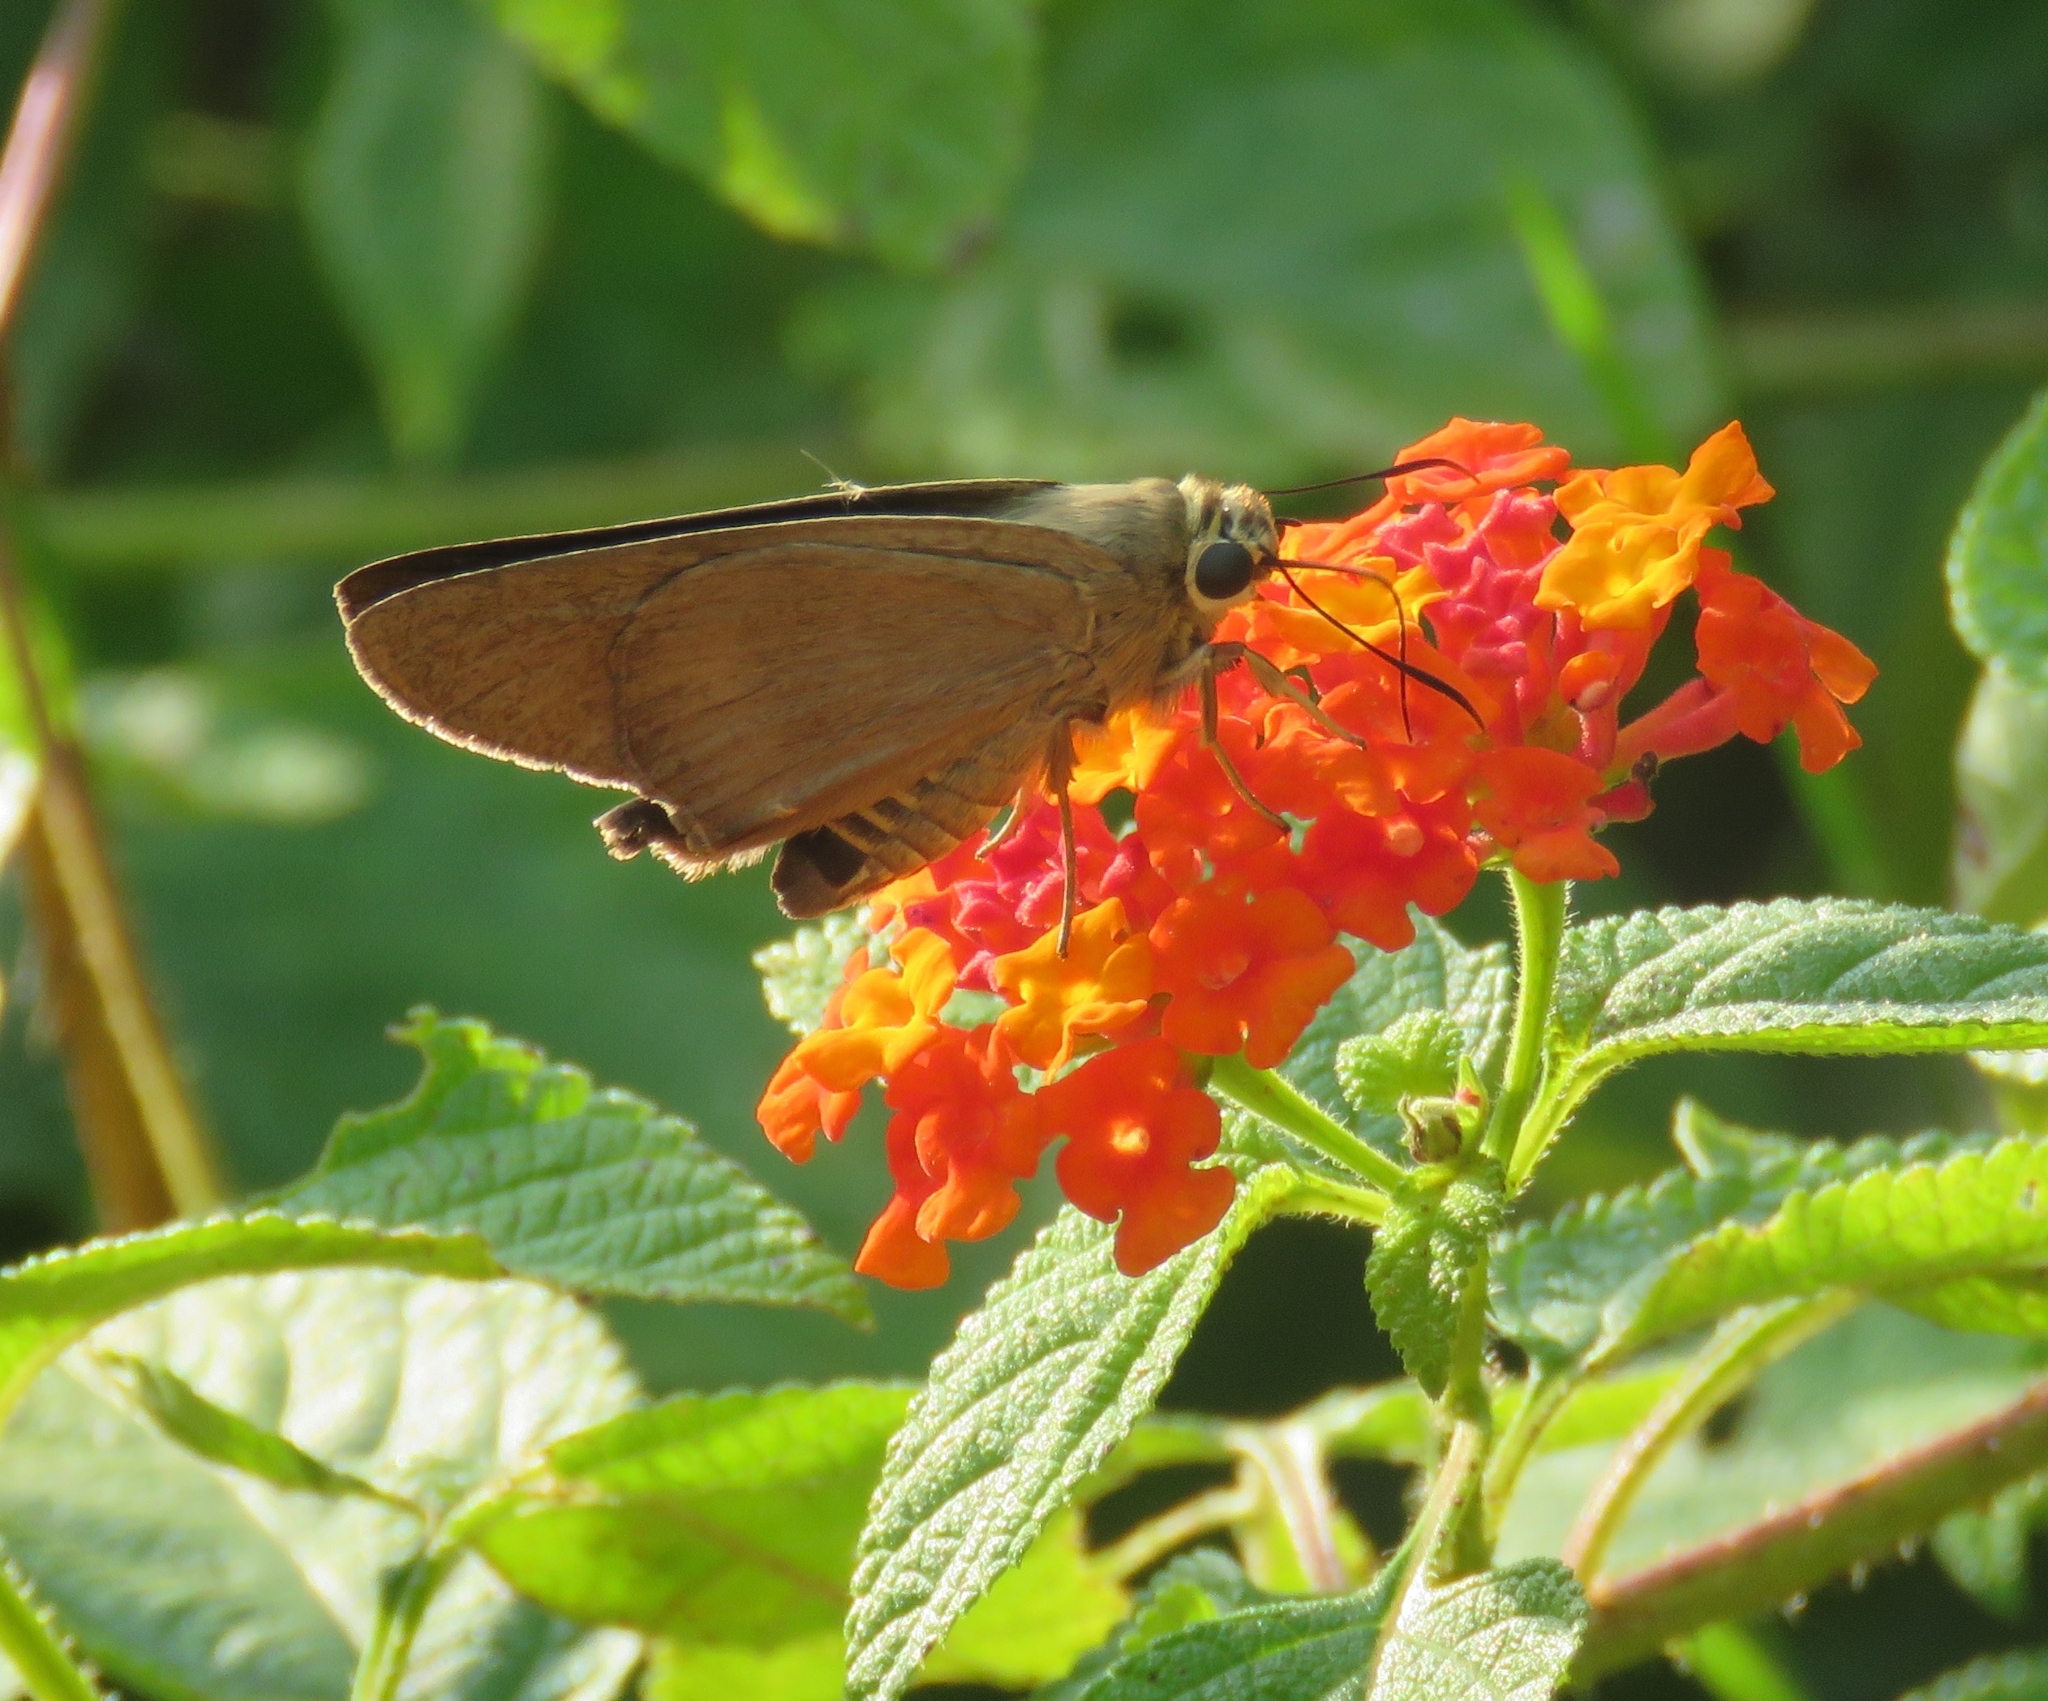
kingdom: Animalia
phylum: Arthropoda
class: Insecta
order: Lepidoptera
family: Hesperiidae
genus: Badamia
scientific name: Badamia exclamationis
